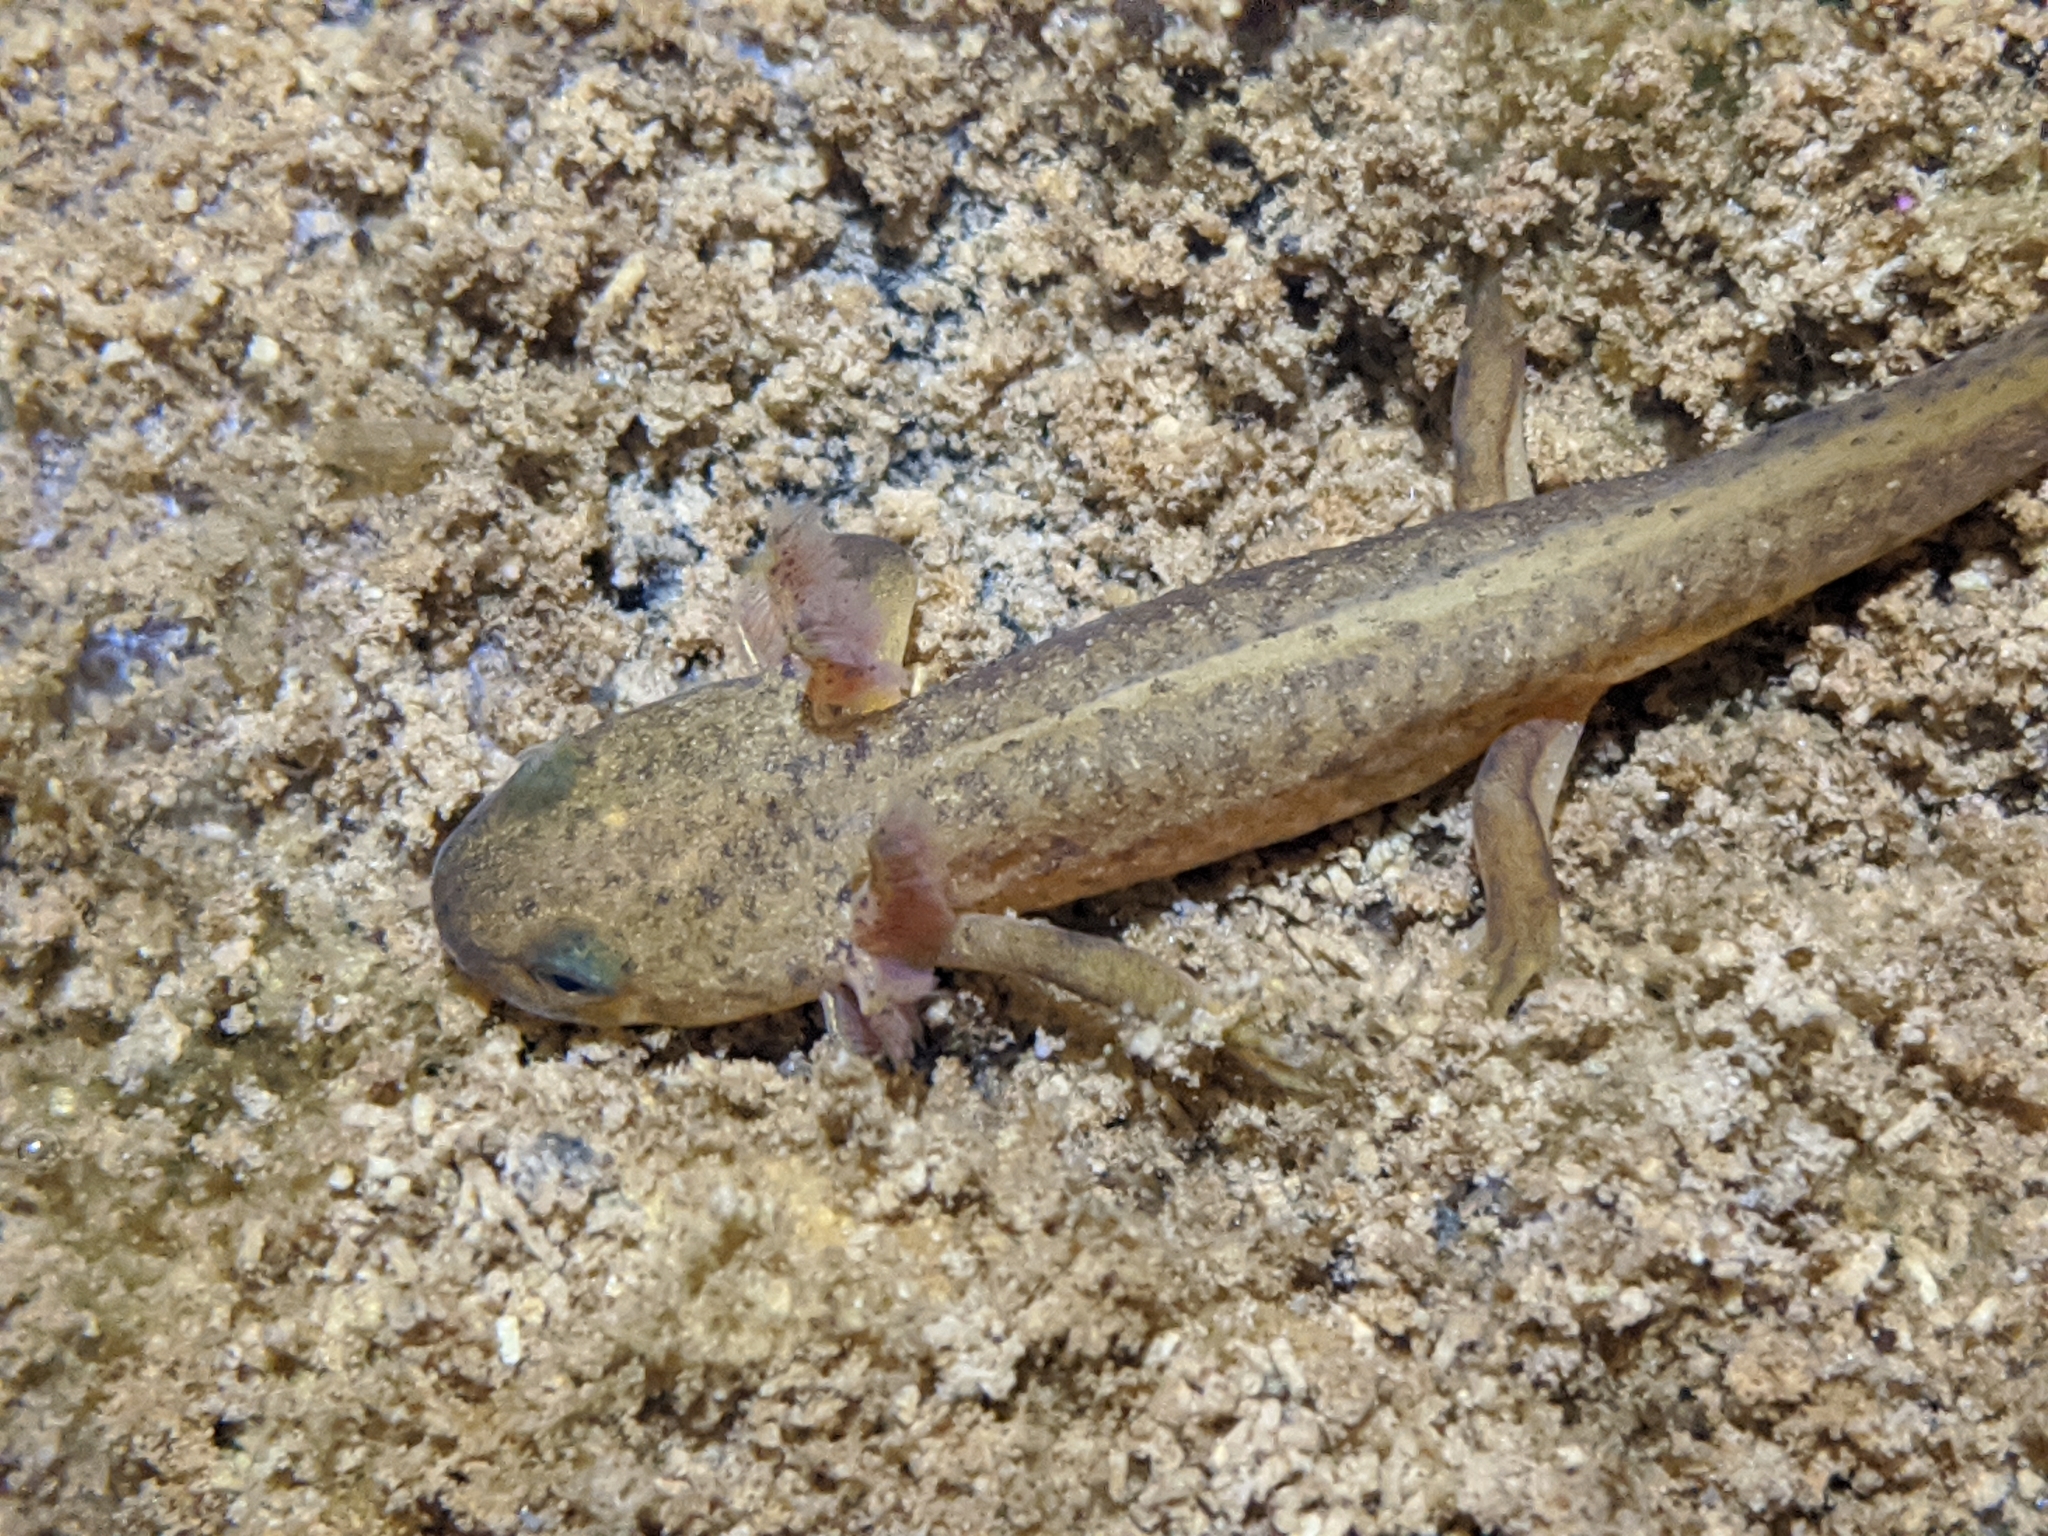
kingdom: Animalia
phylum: Chordata
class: Amphibia
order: Caudata
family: Salamandridae
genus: Taricha
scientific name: Taricha torosa
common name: California newt
